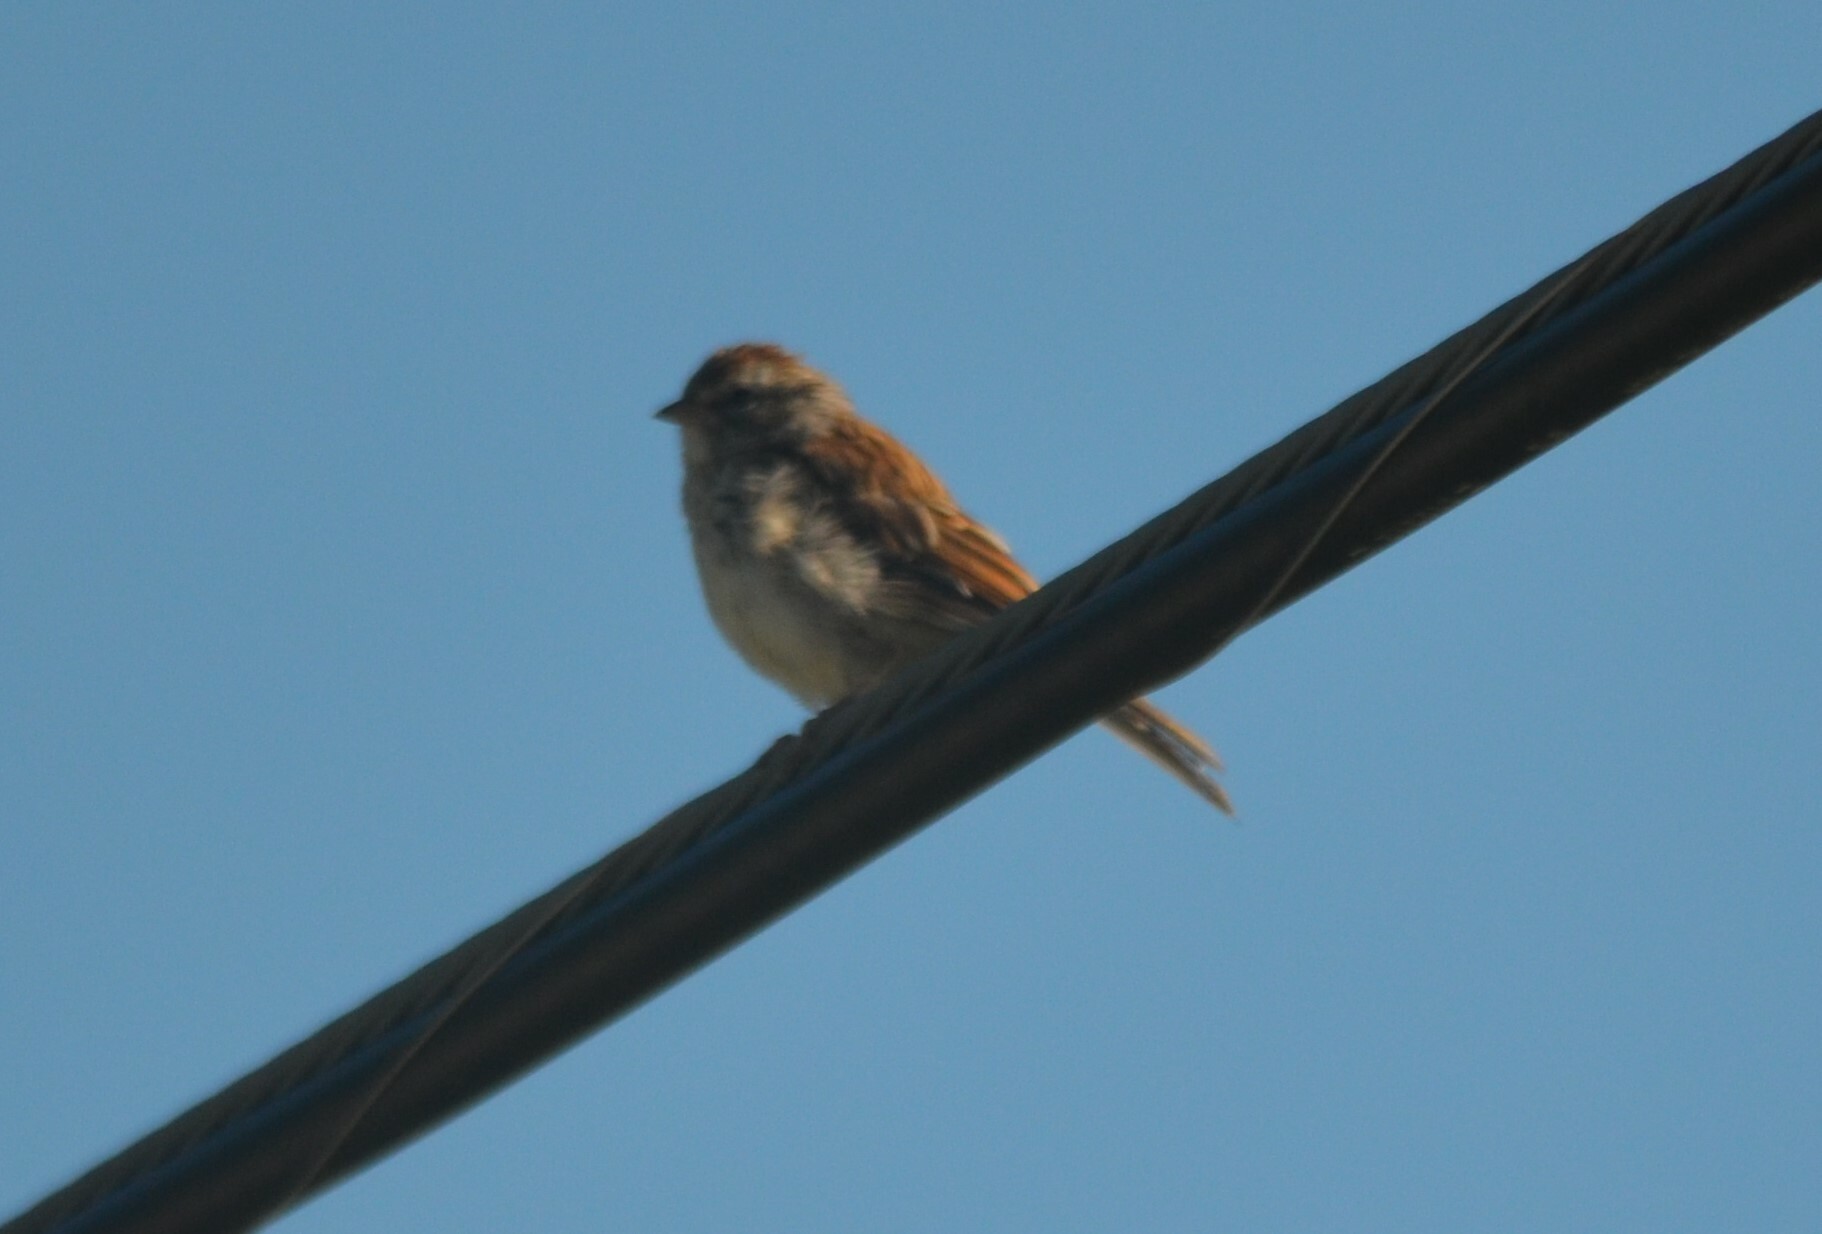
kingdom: Animalia
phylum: Chordata
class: Aves
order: Passeriformes
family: Passerellidae
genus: Spizella
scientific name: Spizella passerina
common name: Chipping sparrow
